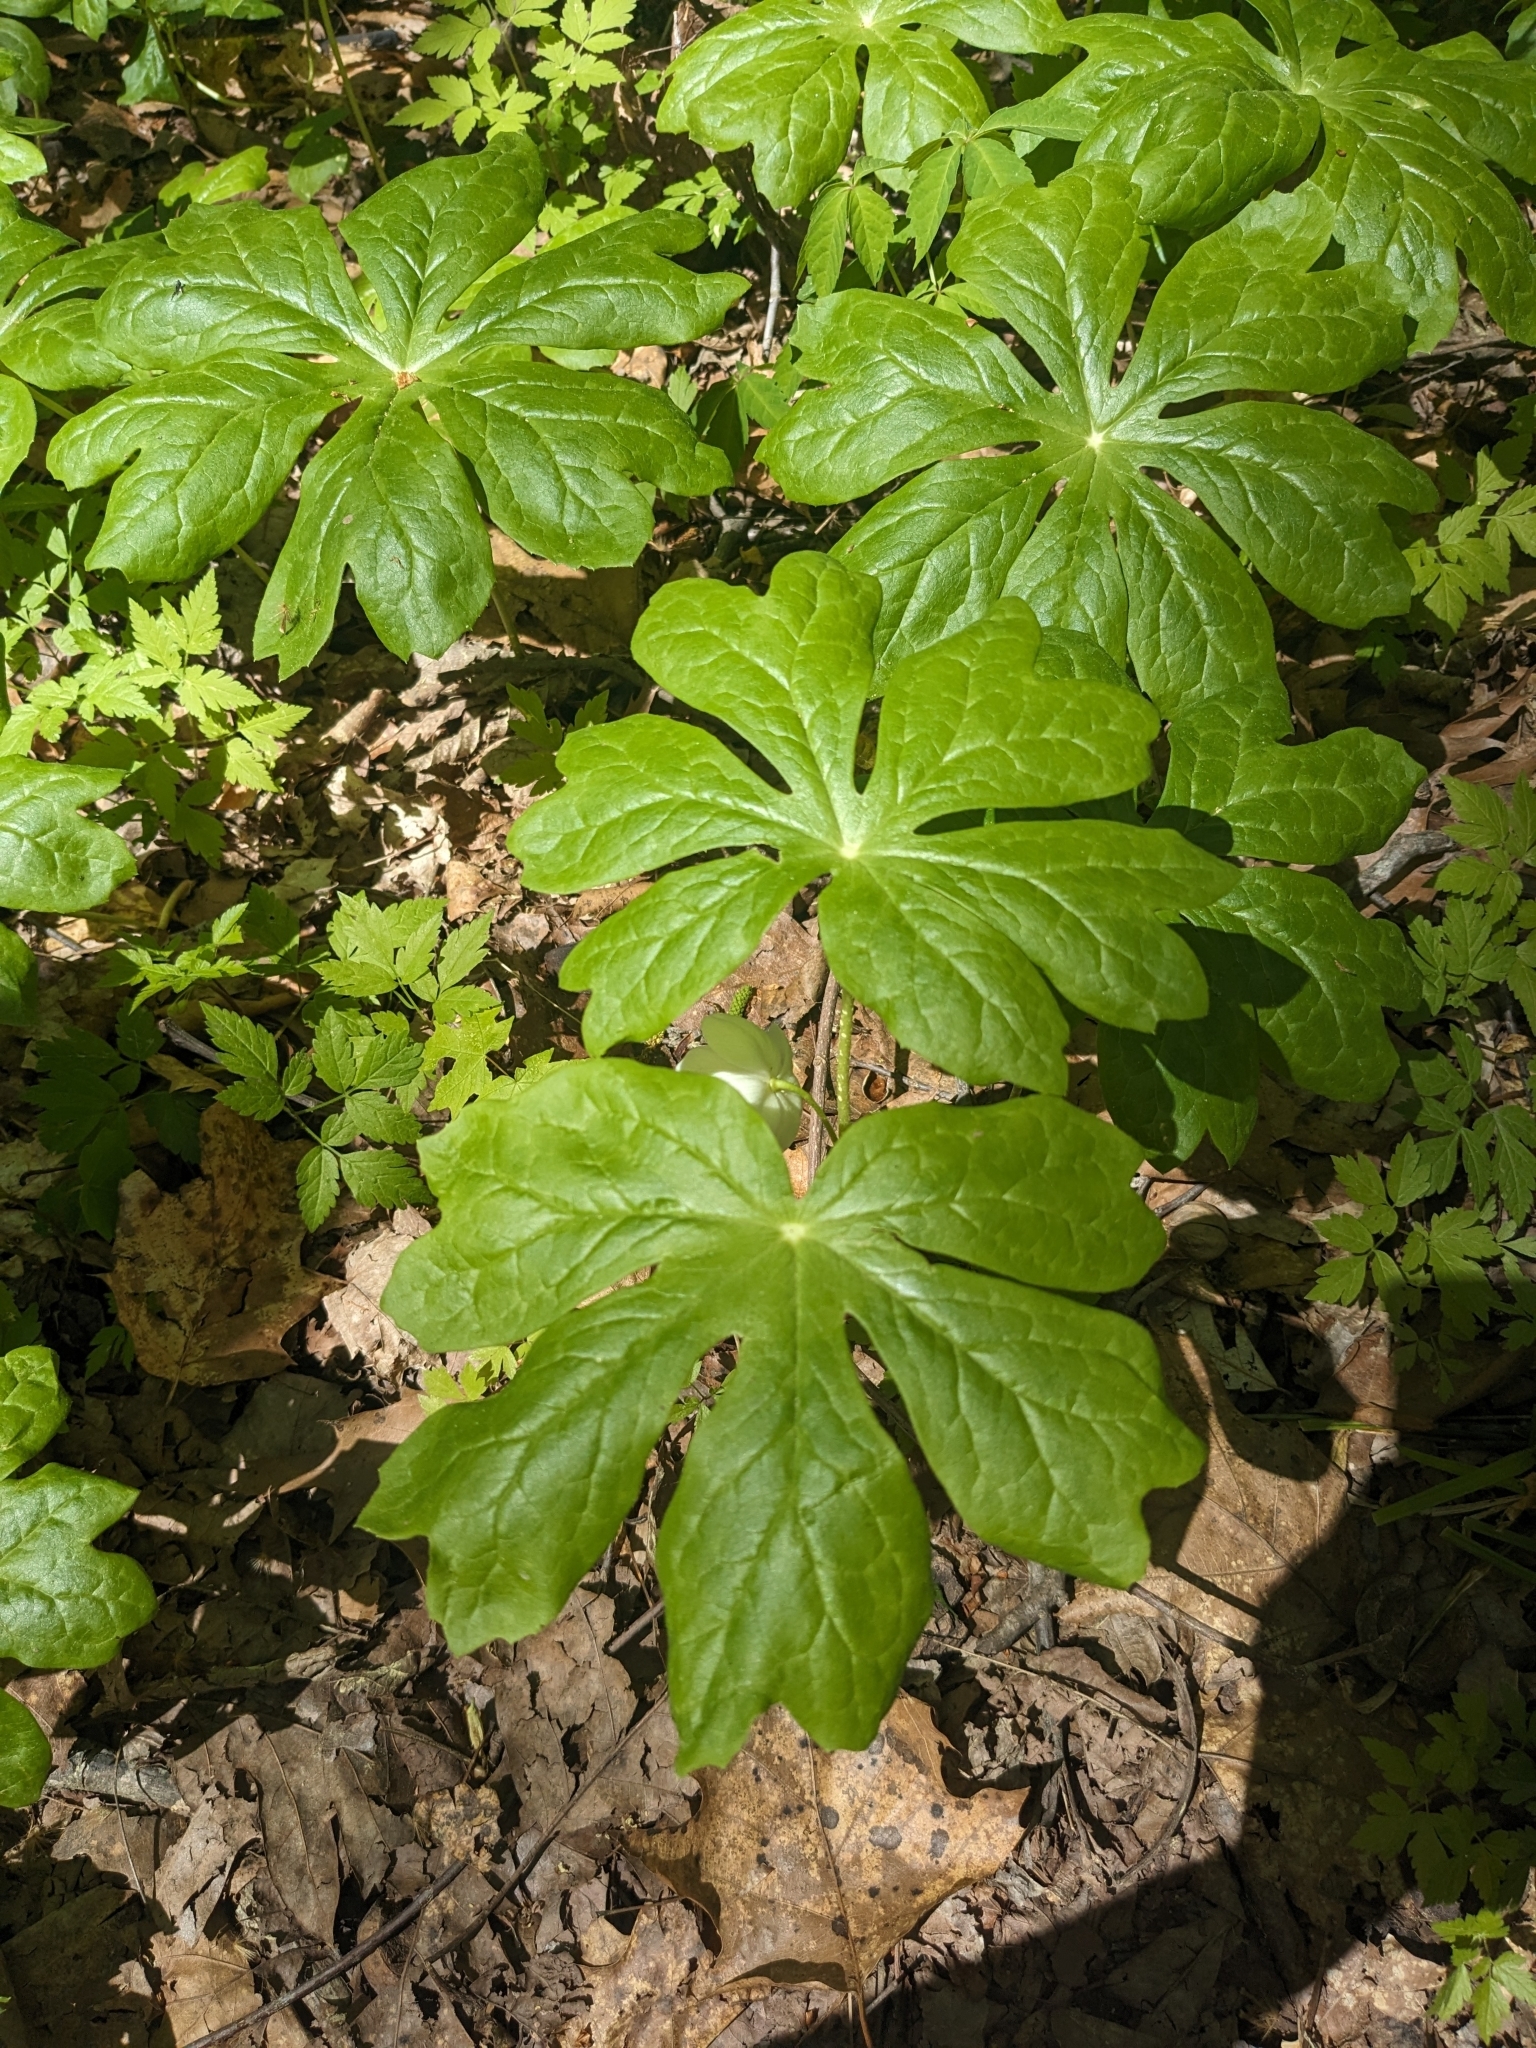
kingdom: Plantae
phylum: Tracheophyta
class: Magnoliopsida
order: Ranunculales
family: Berberidaceae
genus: Podophyllum
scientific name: Podophyllum peltatum
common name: Wild mandrake
